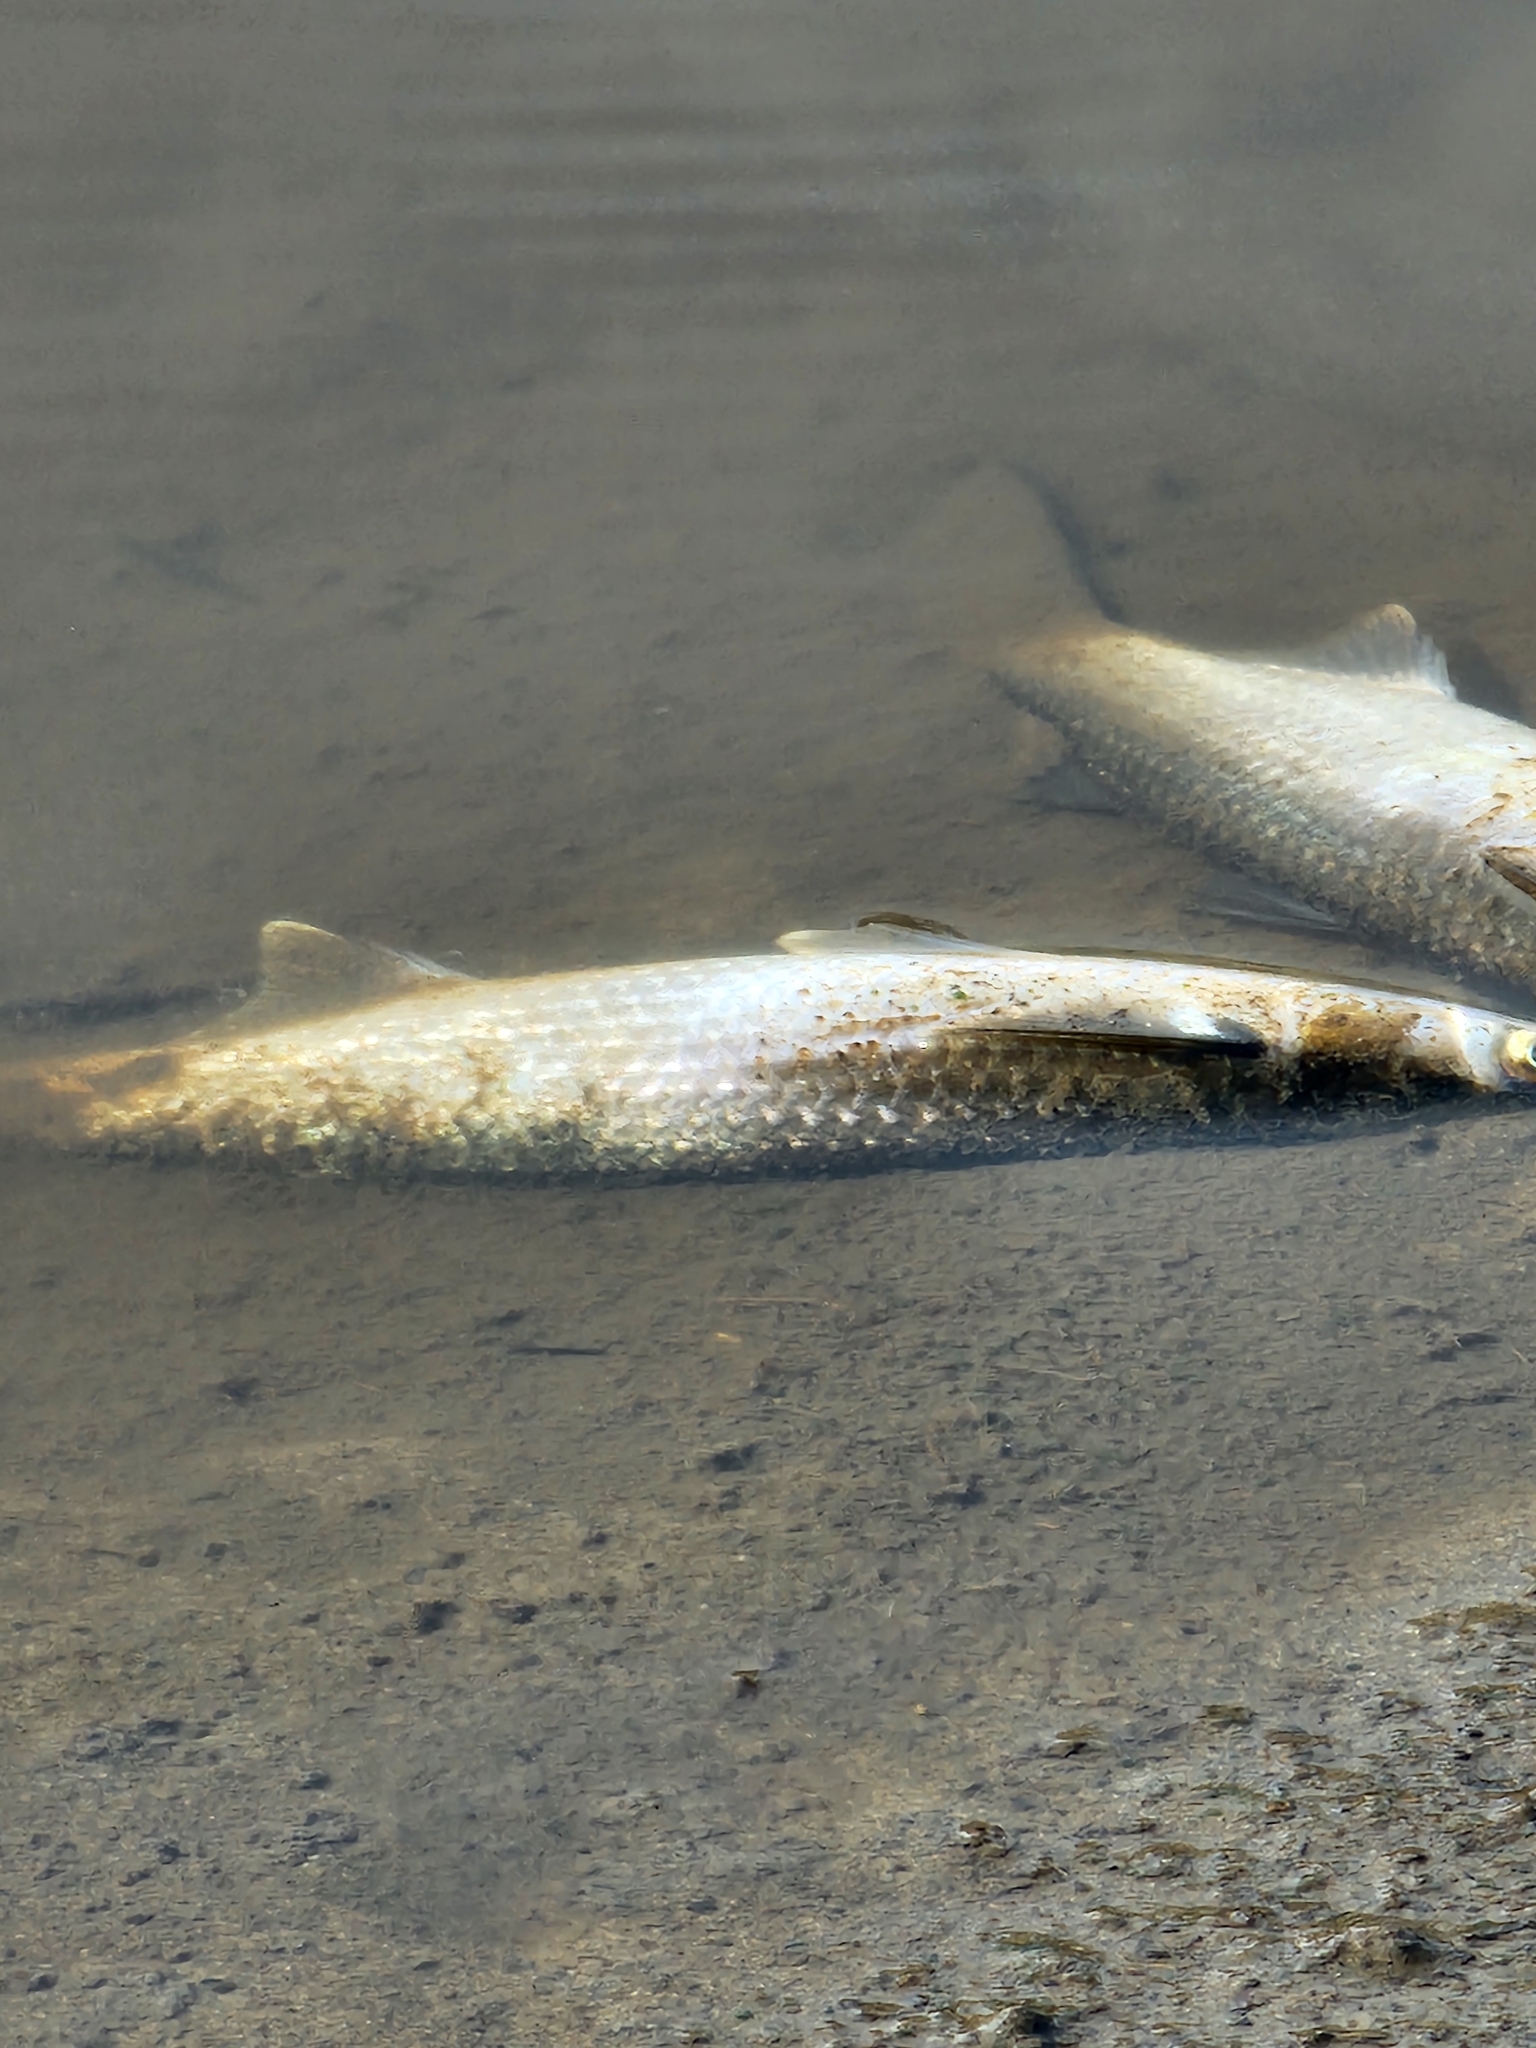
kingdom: Animalia
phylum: Chordata
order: Mugiliformes
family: Mugilidae
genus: Mugil
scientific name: Mugil cephalus
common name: Grey mullet
